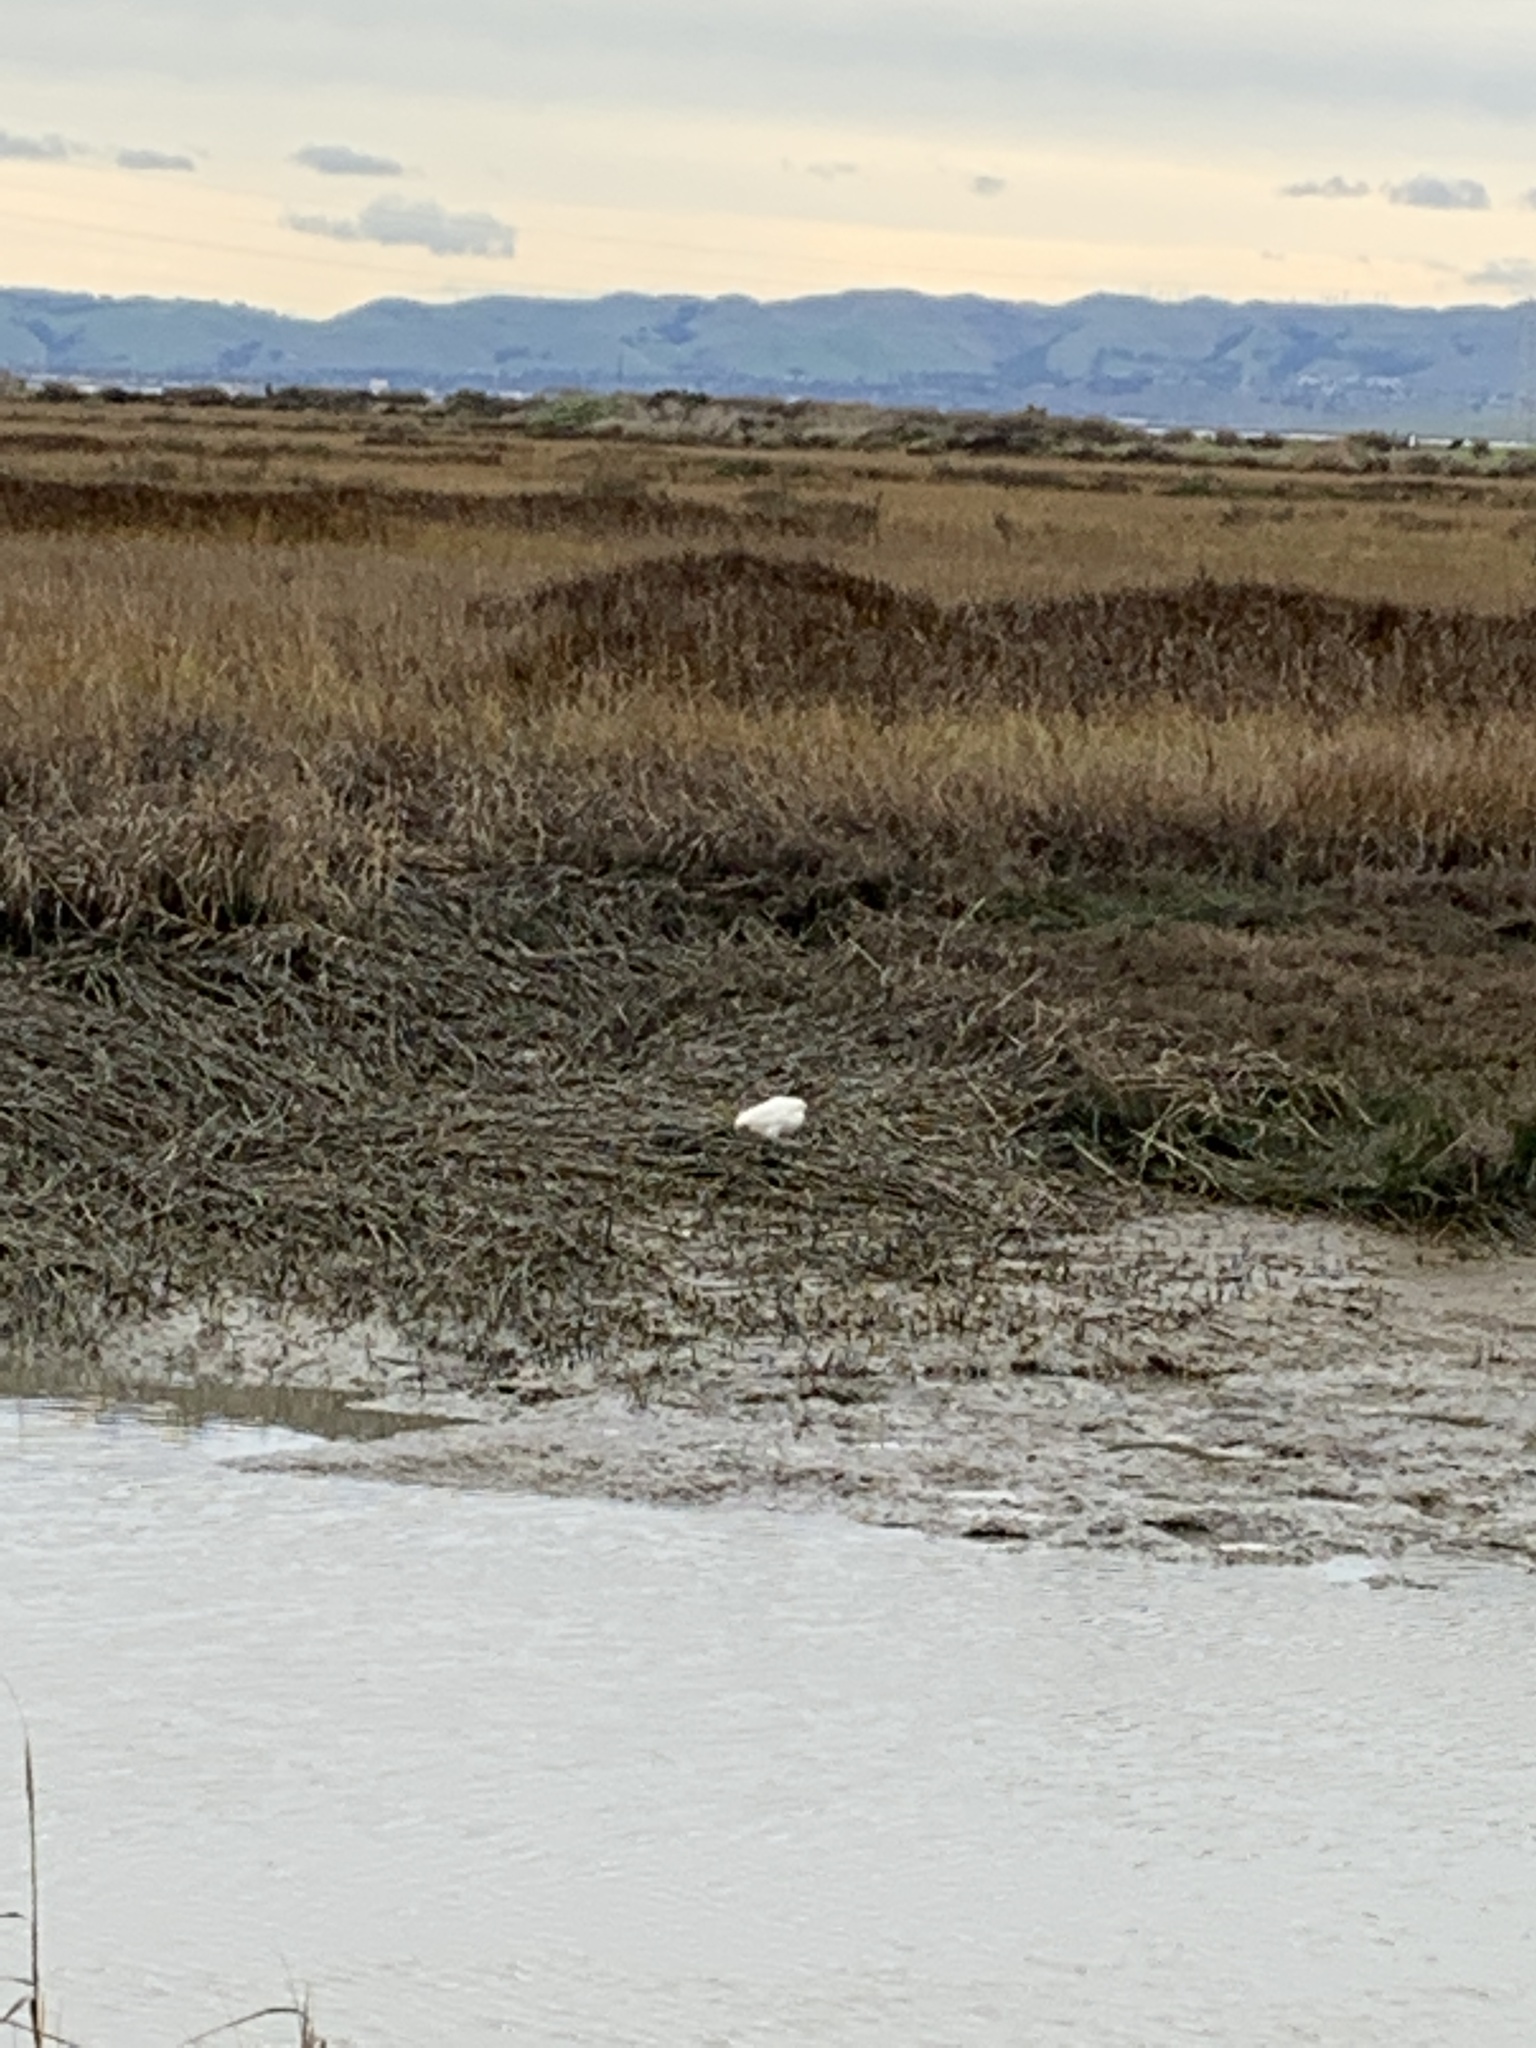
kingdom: Animalia
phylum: Chordata
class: Aves
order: Pelecaniformes
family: Ardeidae
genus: Egretta
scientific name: Egretta thula
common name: Snowy egret
